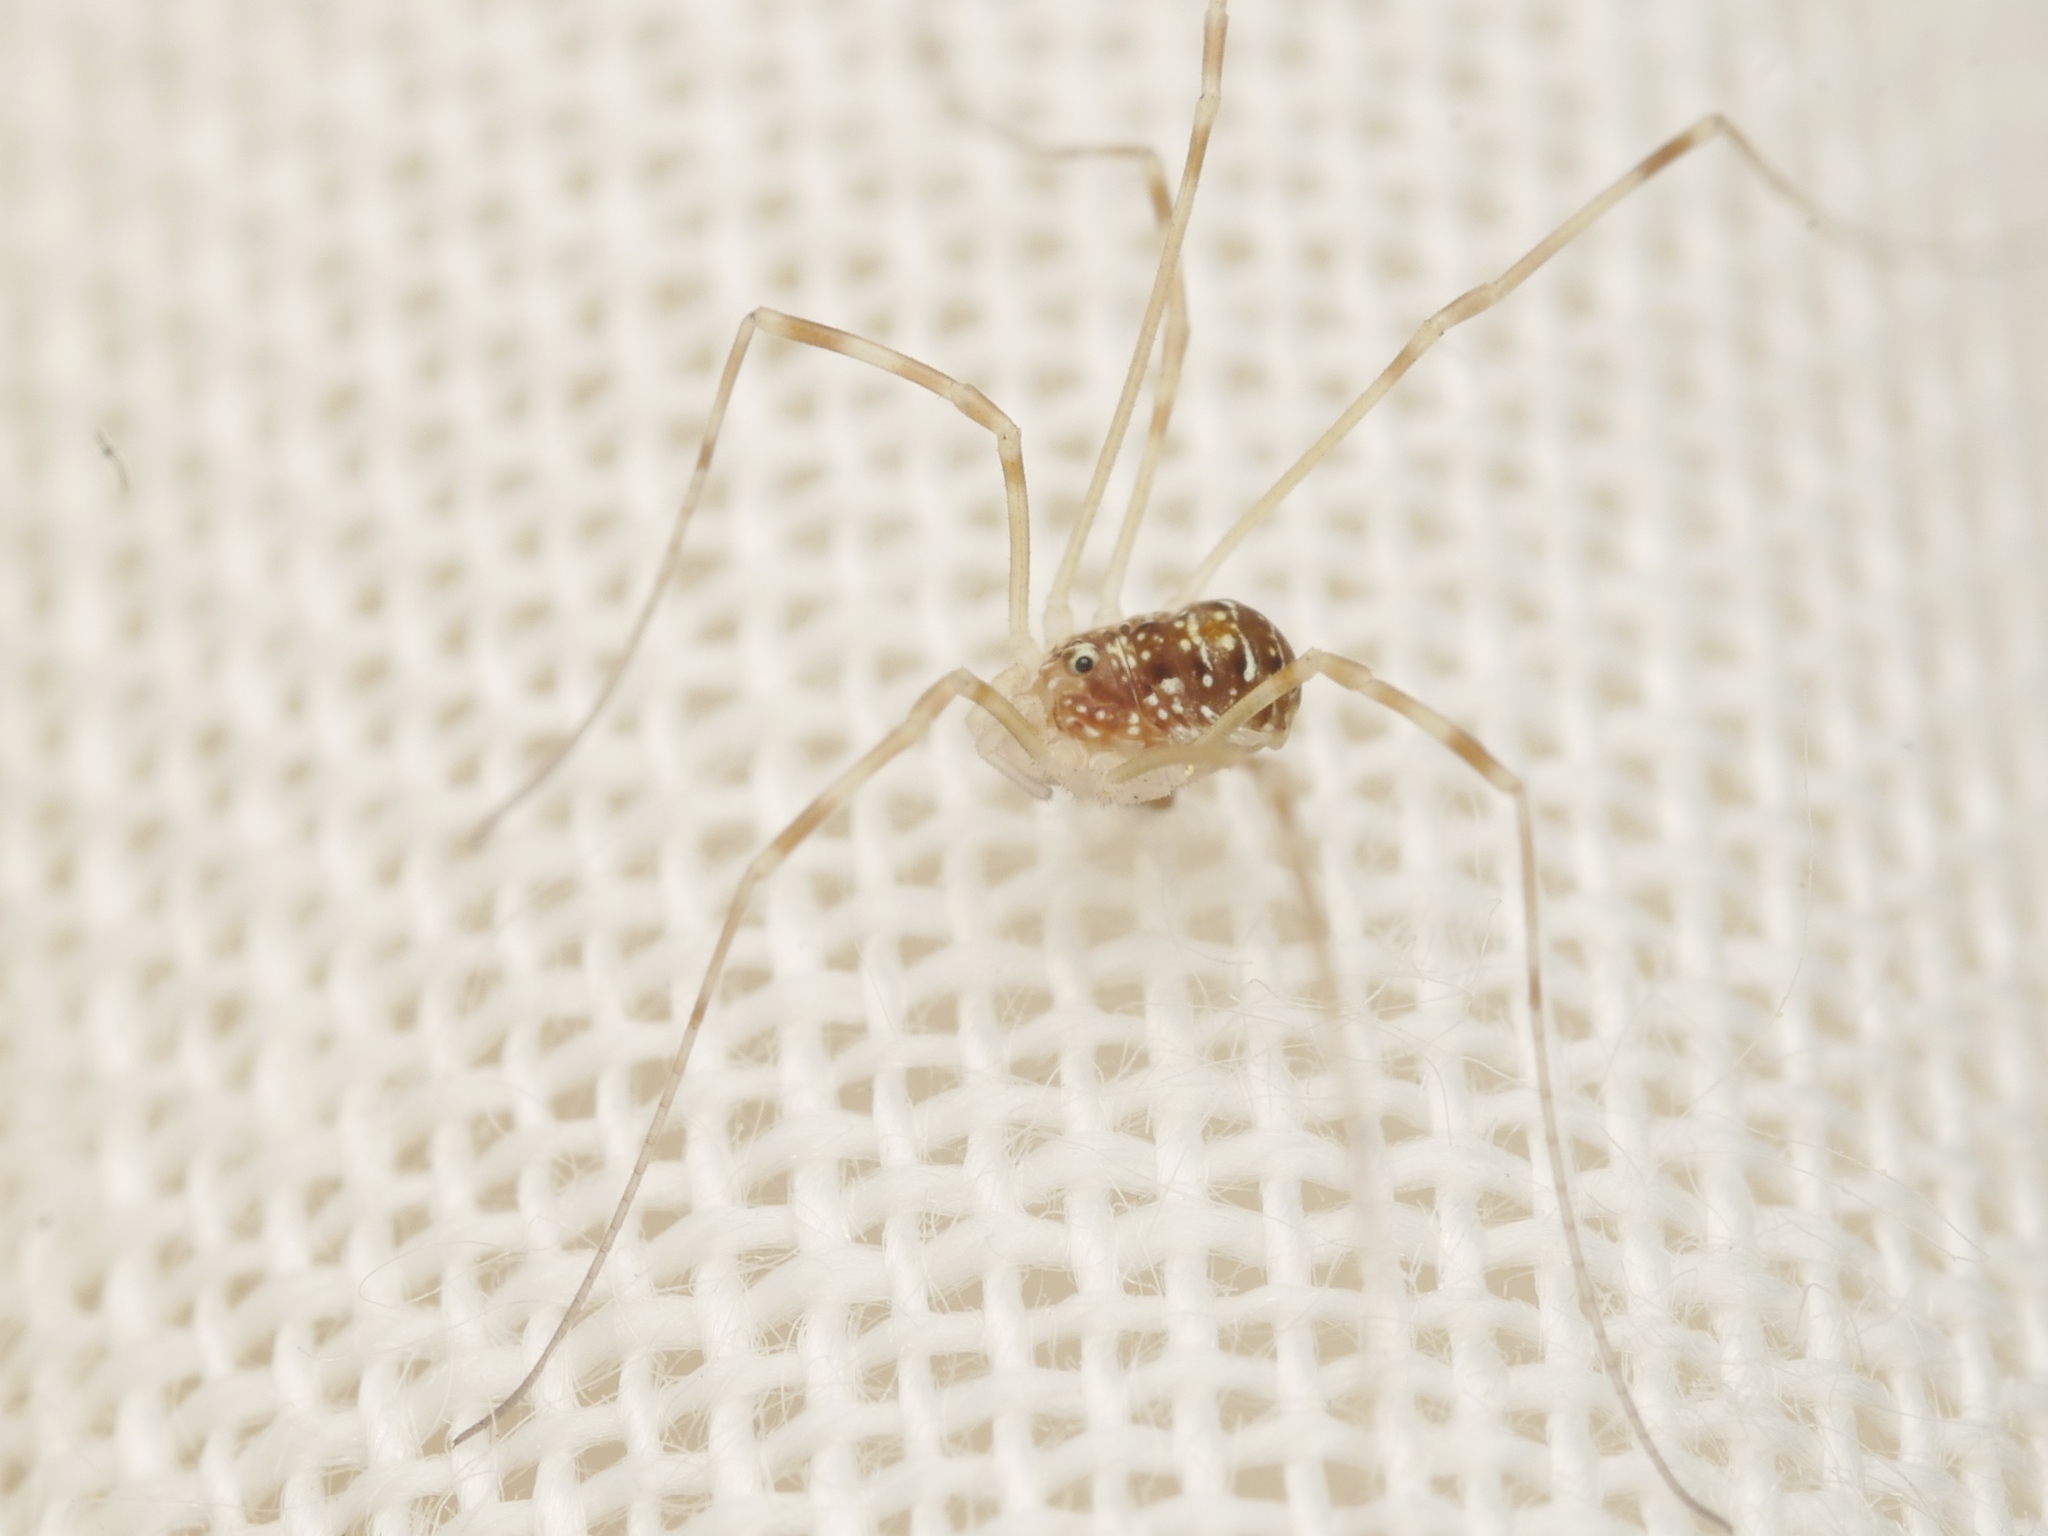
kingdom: Animalia
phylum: Arthropoda
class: Arachnida
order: Opiliones
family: Phalangiidae
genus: Opilio
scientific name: Opilio canestrinii
